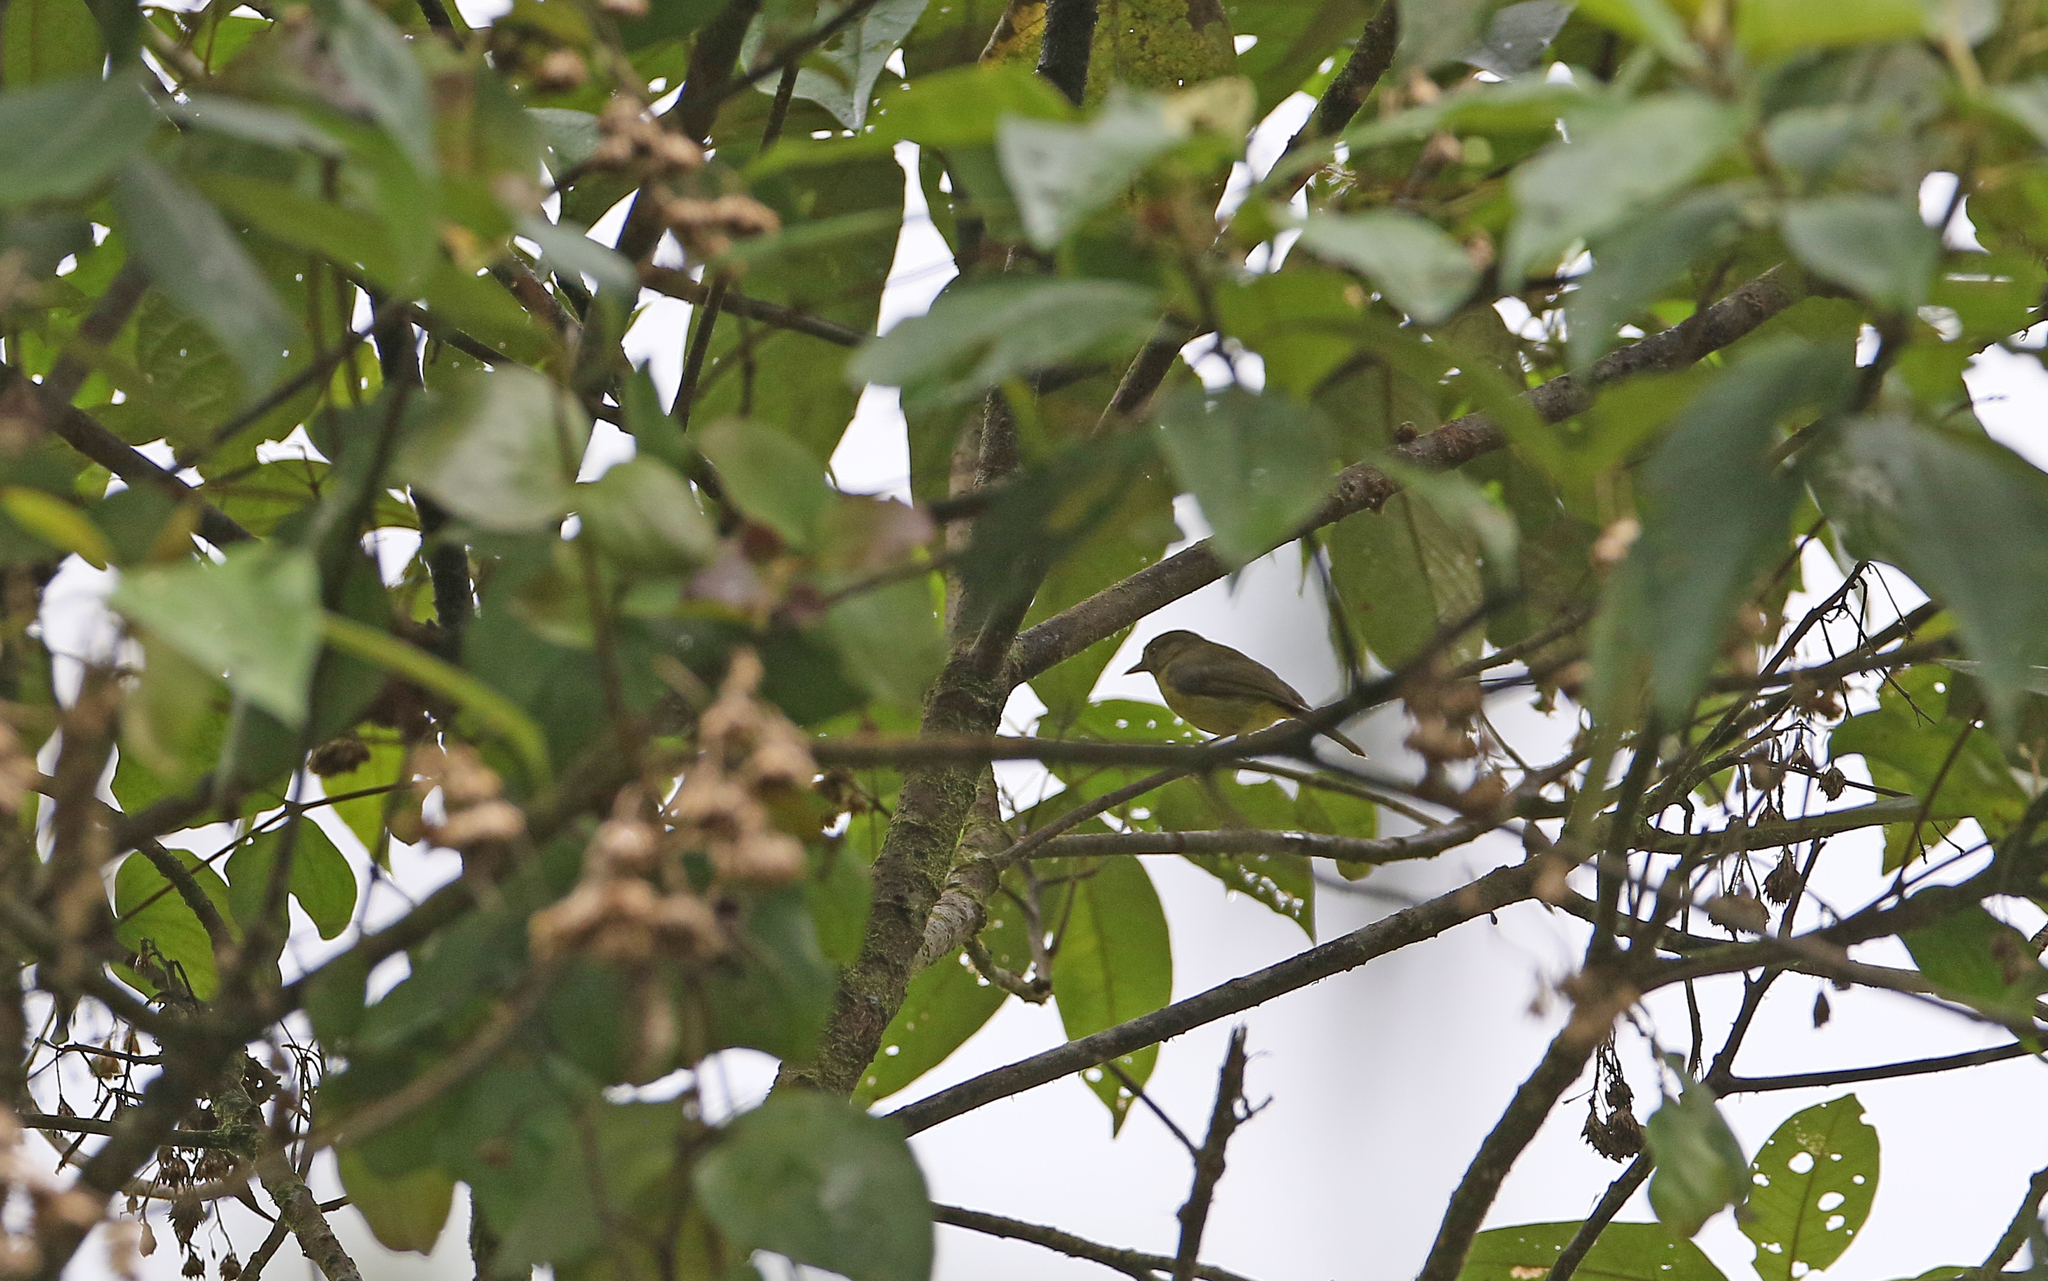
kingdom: Animalia
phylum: Chordata
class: Aves
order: Passeriformes
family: Vireonidae
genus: Hylophilus
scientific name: Hylophilus olivaceus
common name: Olivaceous greenlet
